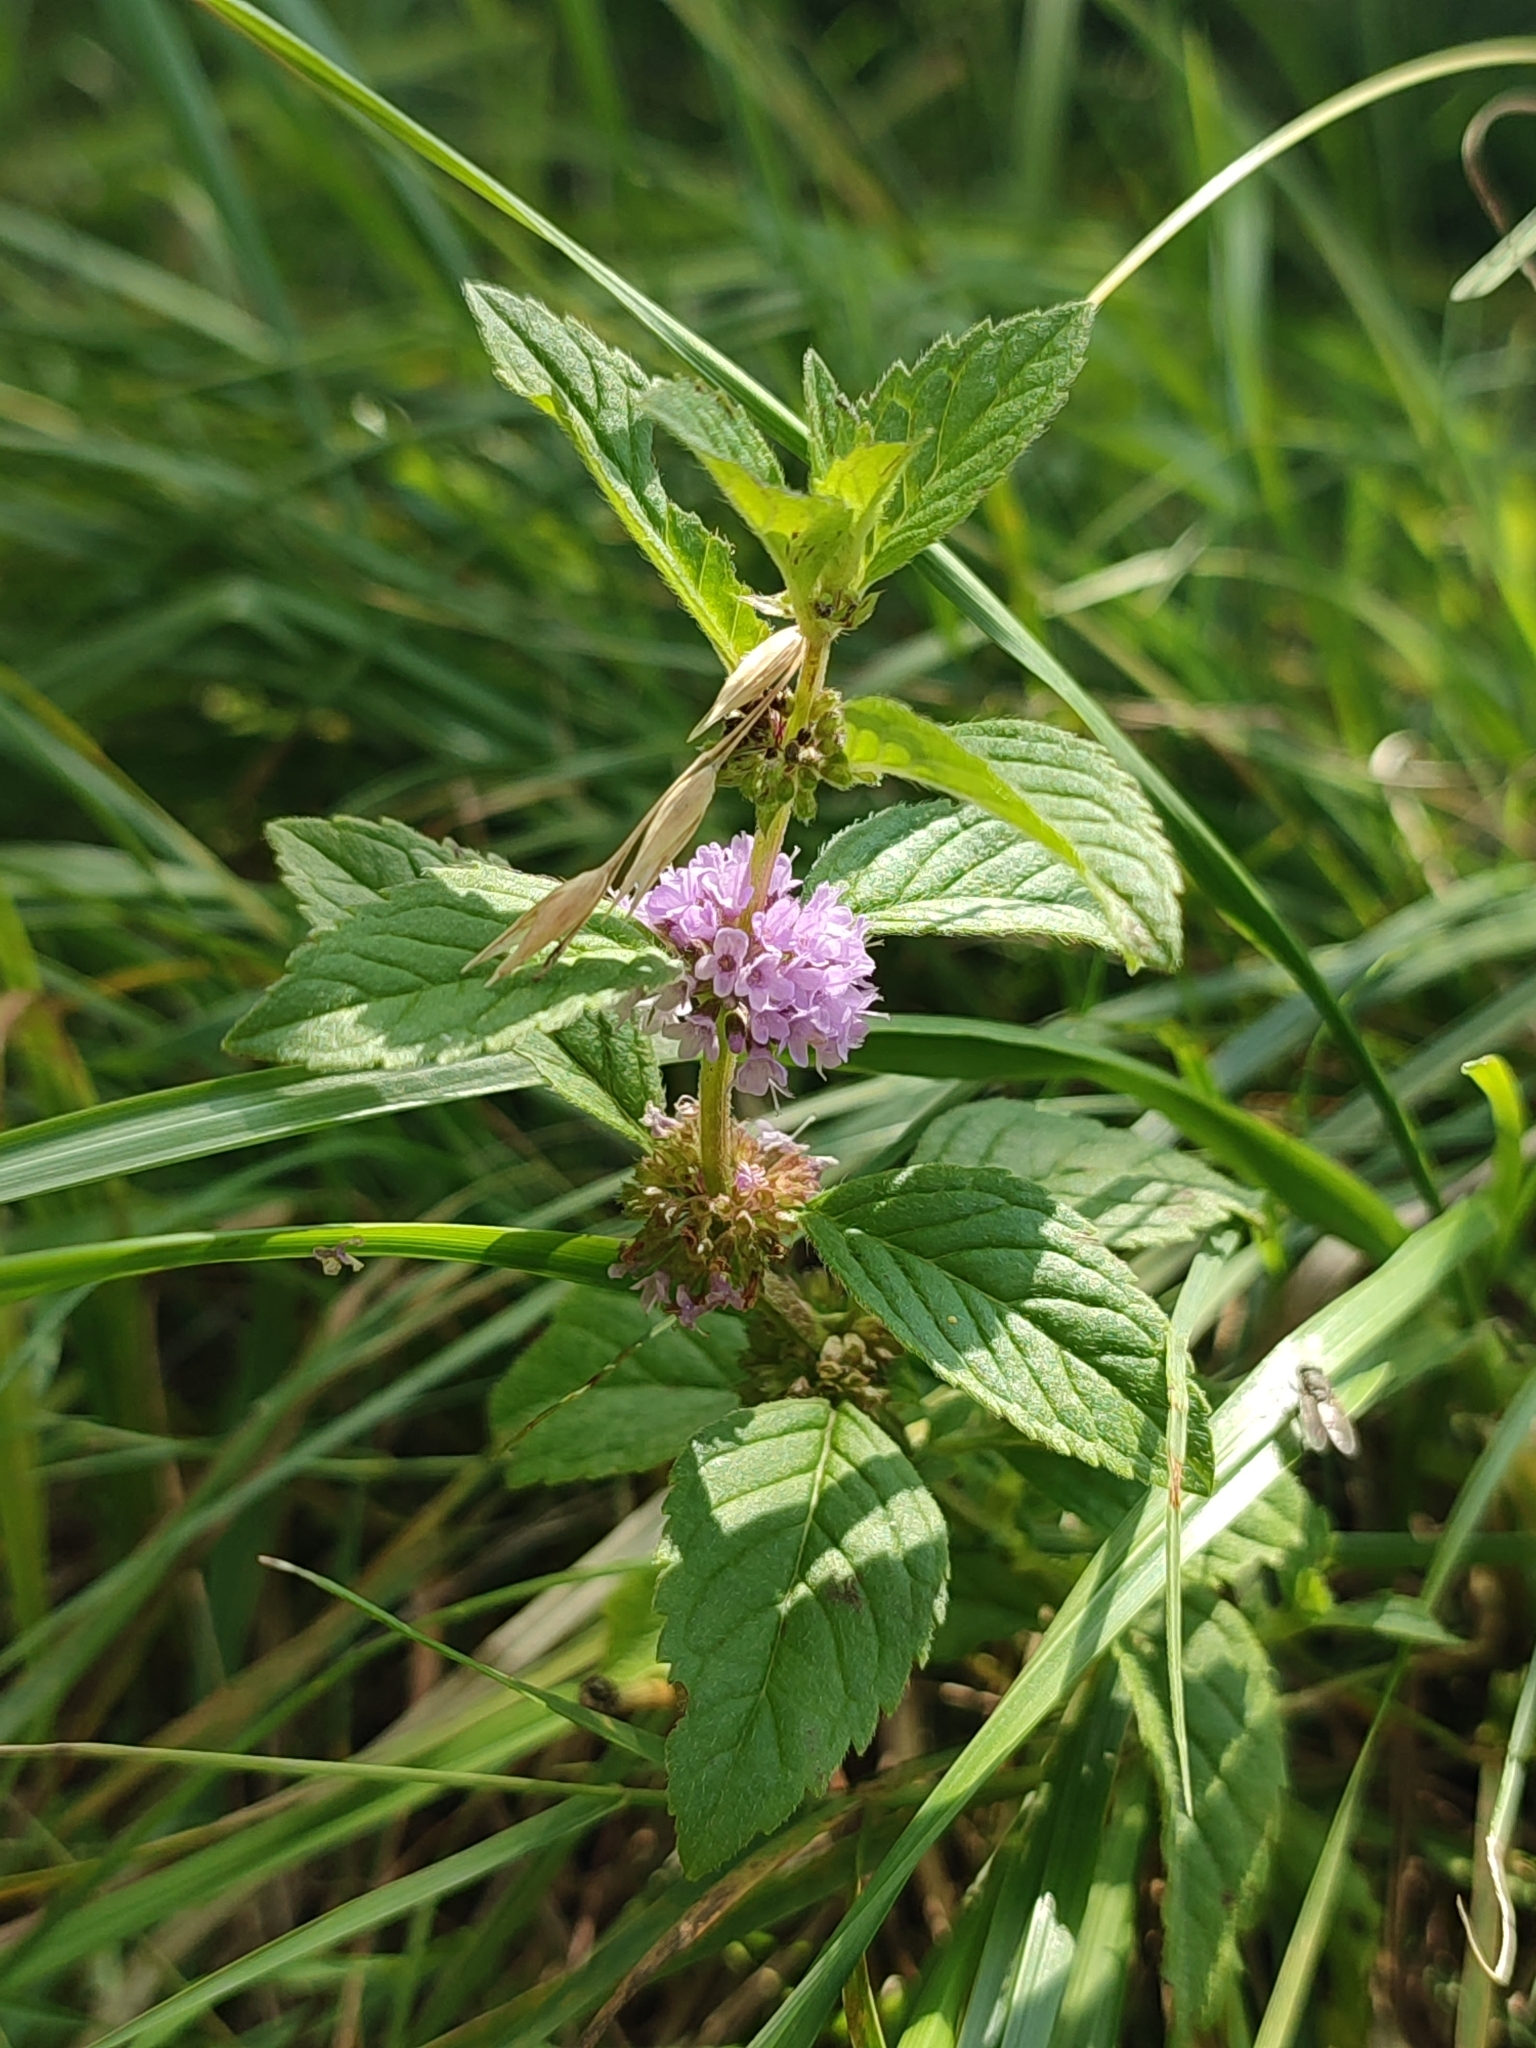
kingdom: Plantae
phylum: Tracheophyta
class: Magnoliopsida
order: Lamiales
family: Lamiaceae
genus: Mentha
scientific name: Mentha arvensis
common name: Corn mint
